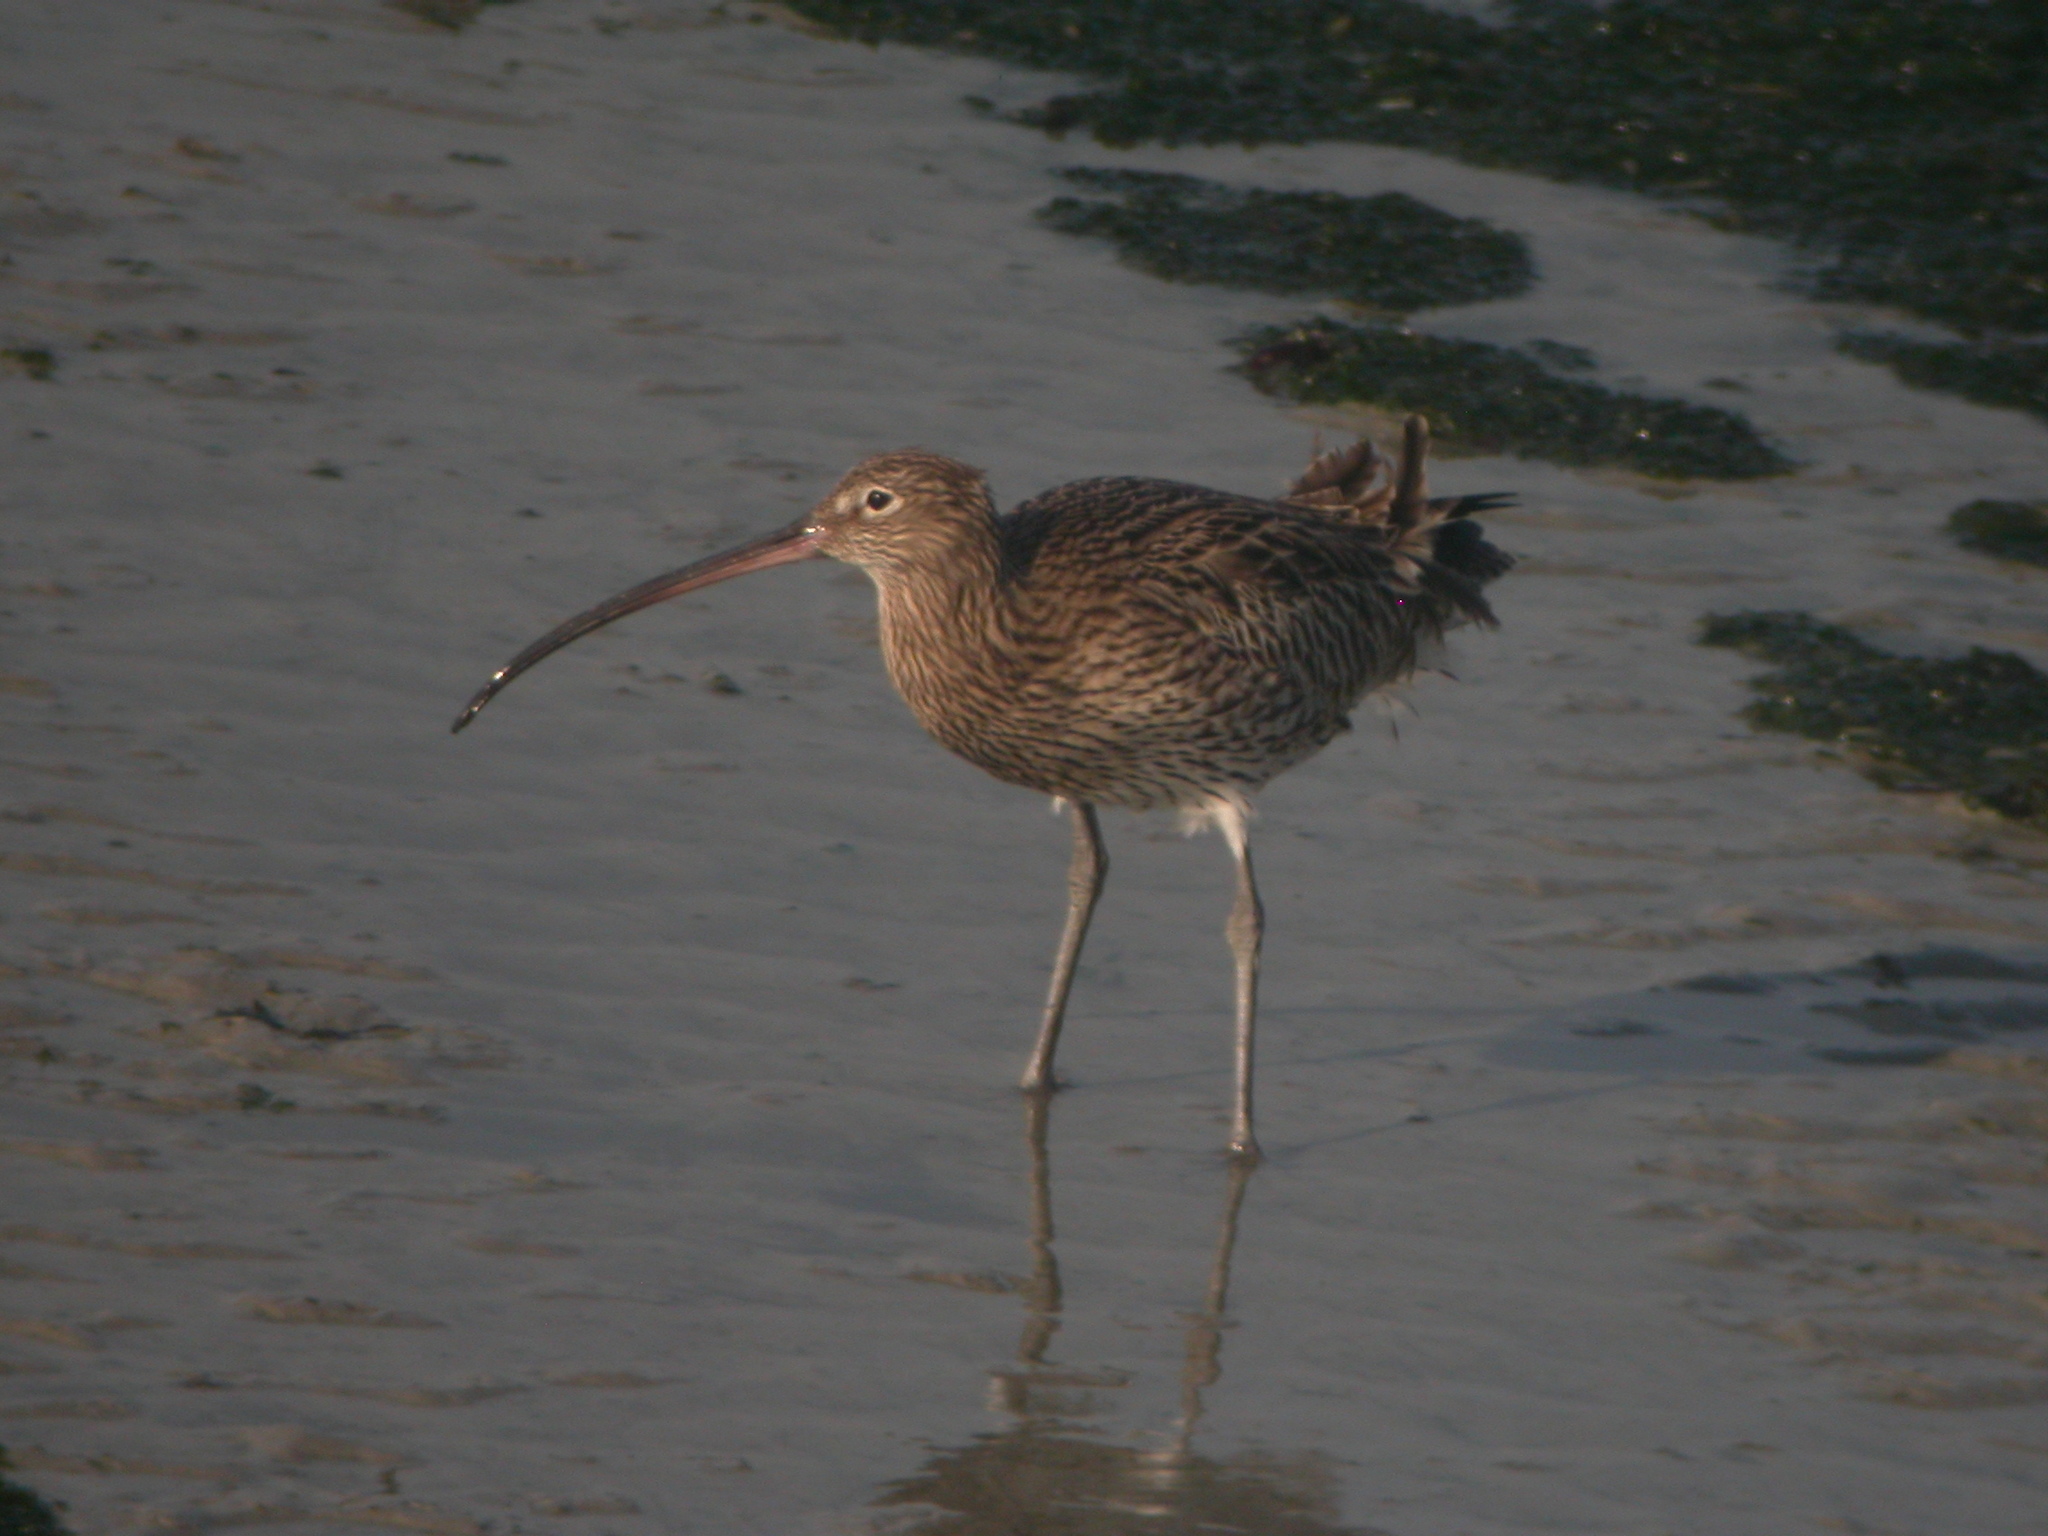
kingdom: Animalia
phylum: Chordata
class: Aves
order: Charadriiformes
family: Scolopacidae
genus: Numenius
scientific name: Numenius arquata
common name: Eurasian curlew
